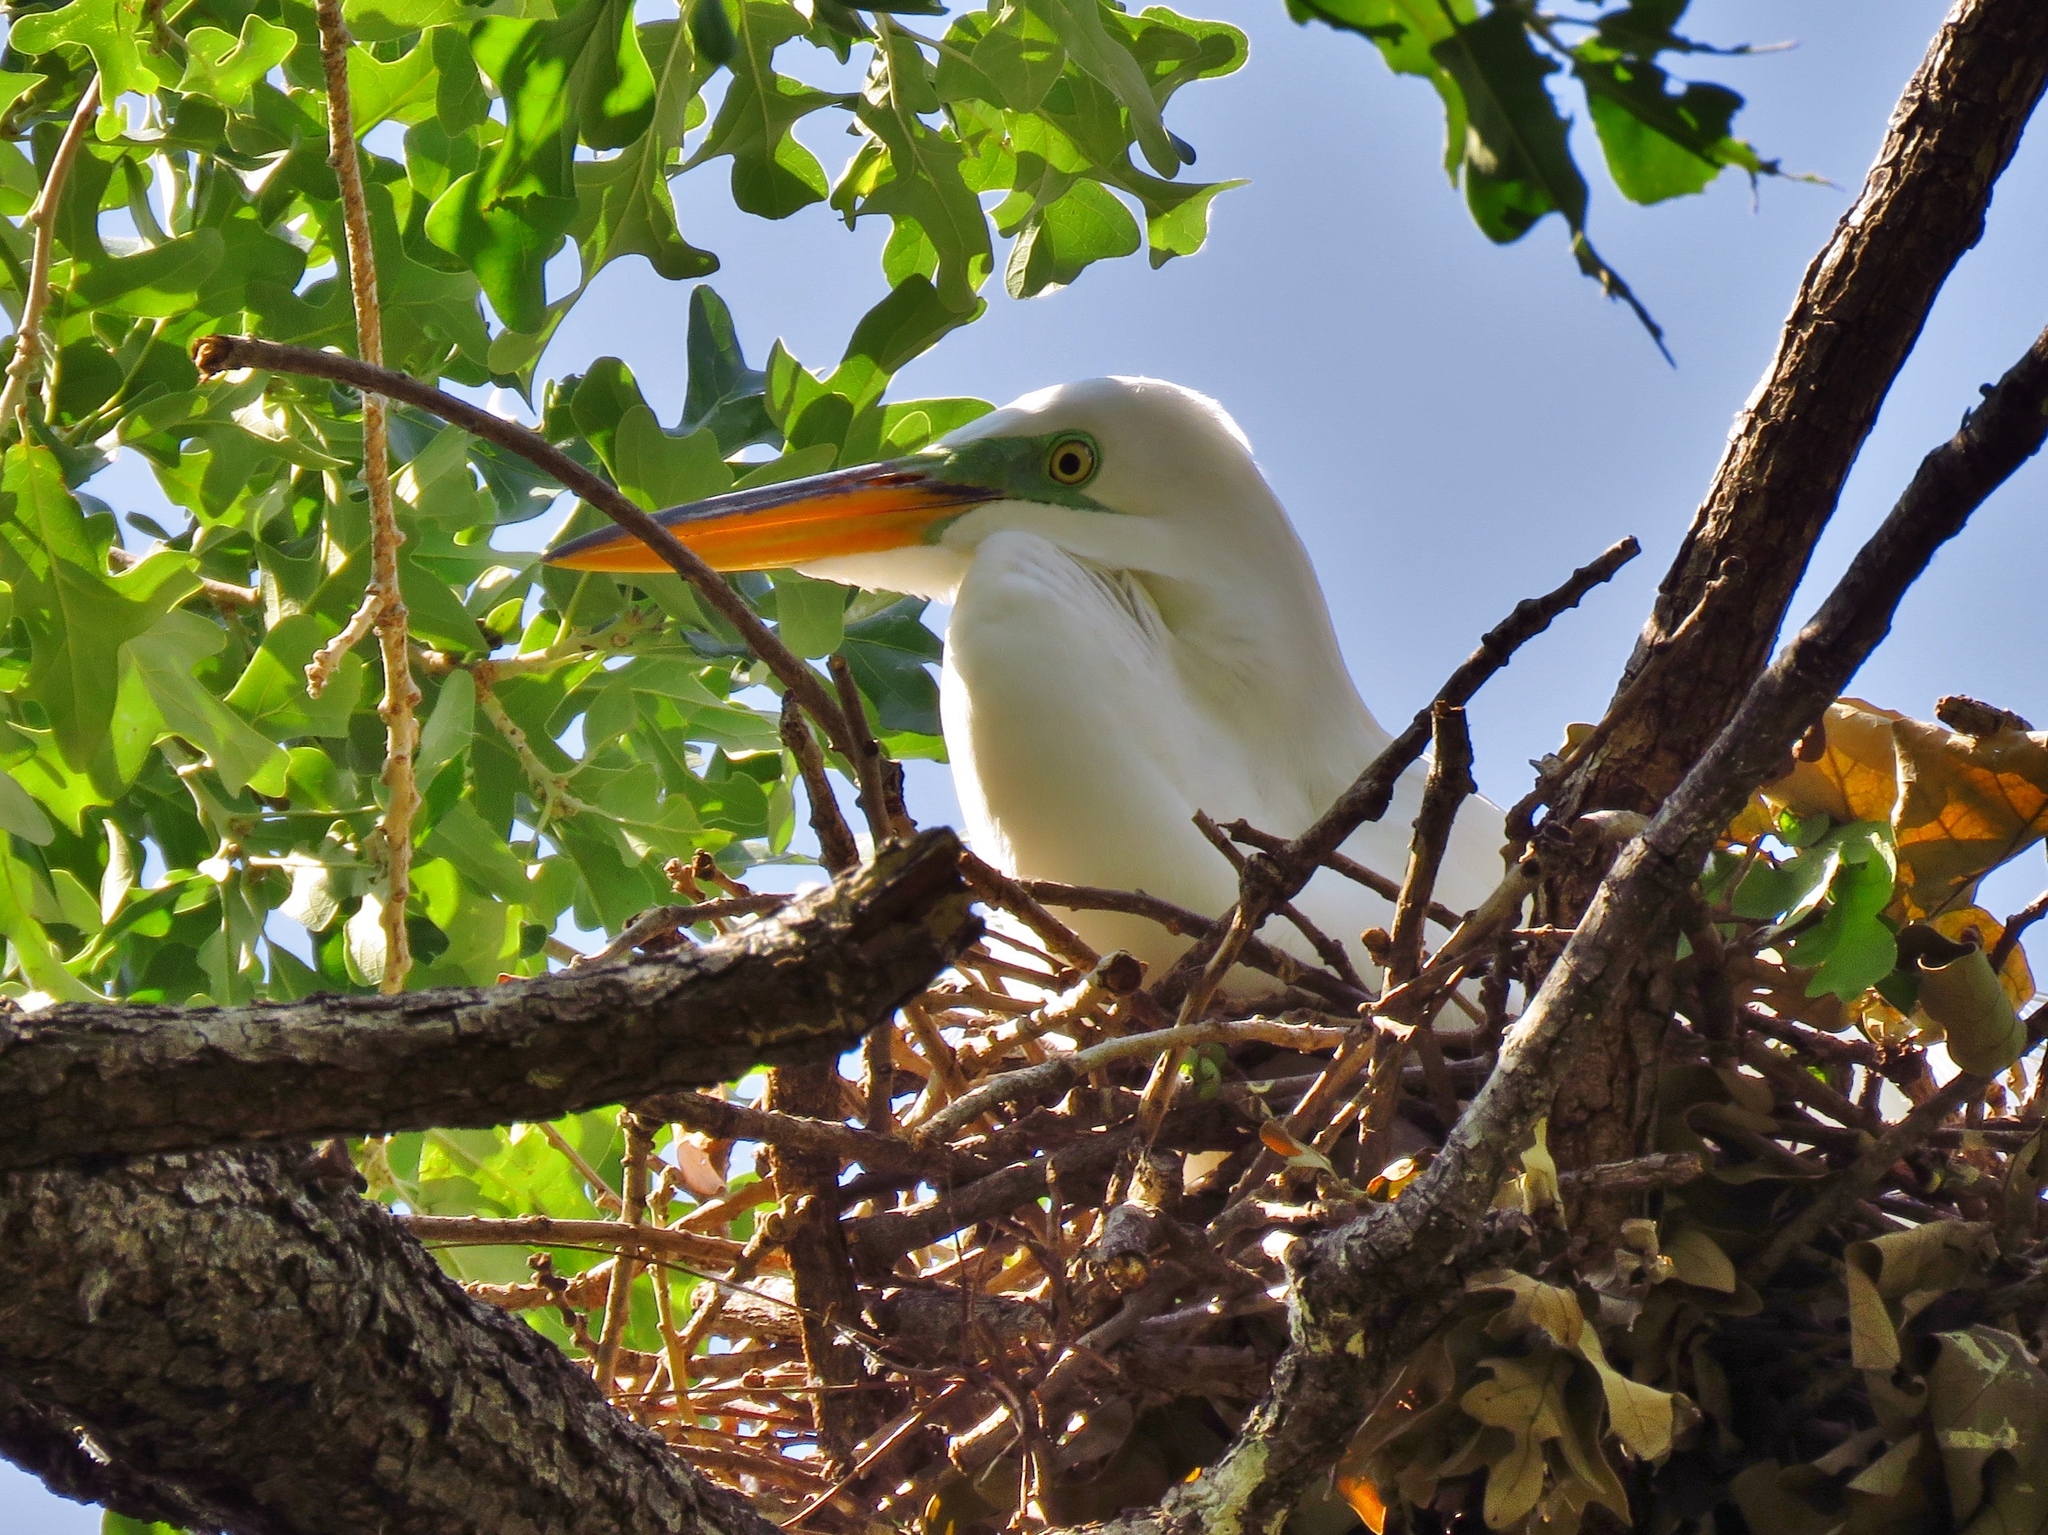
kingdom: Animalia
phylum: Chordata
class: Aves
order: Pelecaniformes
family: Ardeidae
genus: Ardea
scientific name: Ardea alba
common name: Great egret
